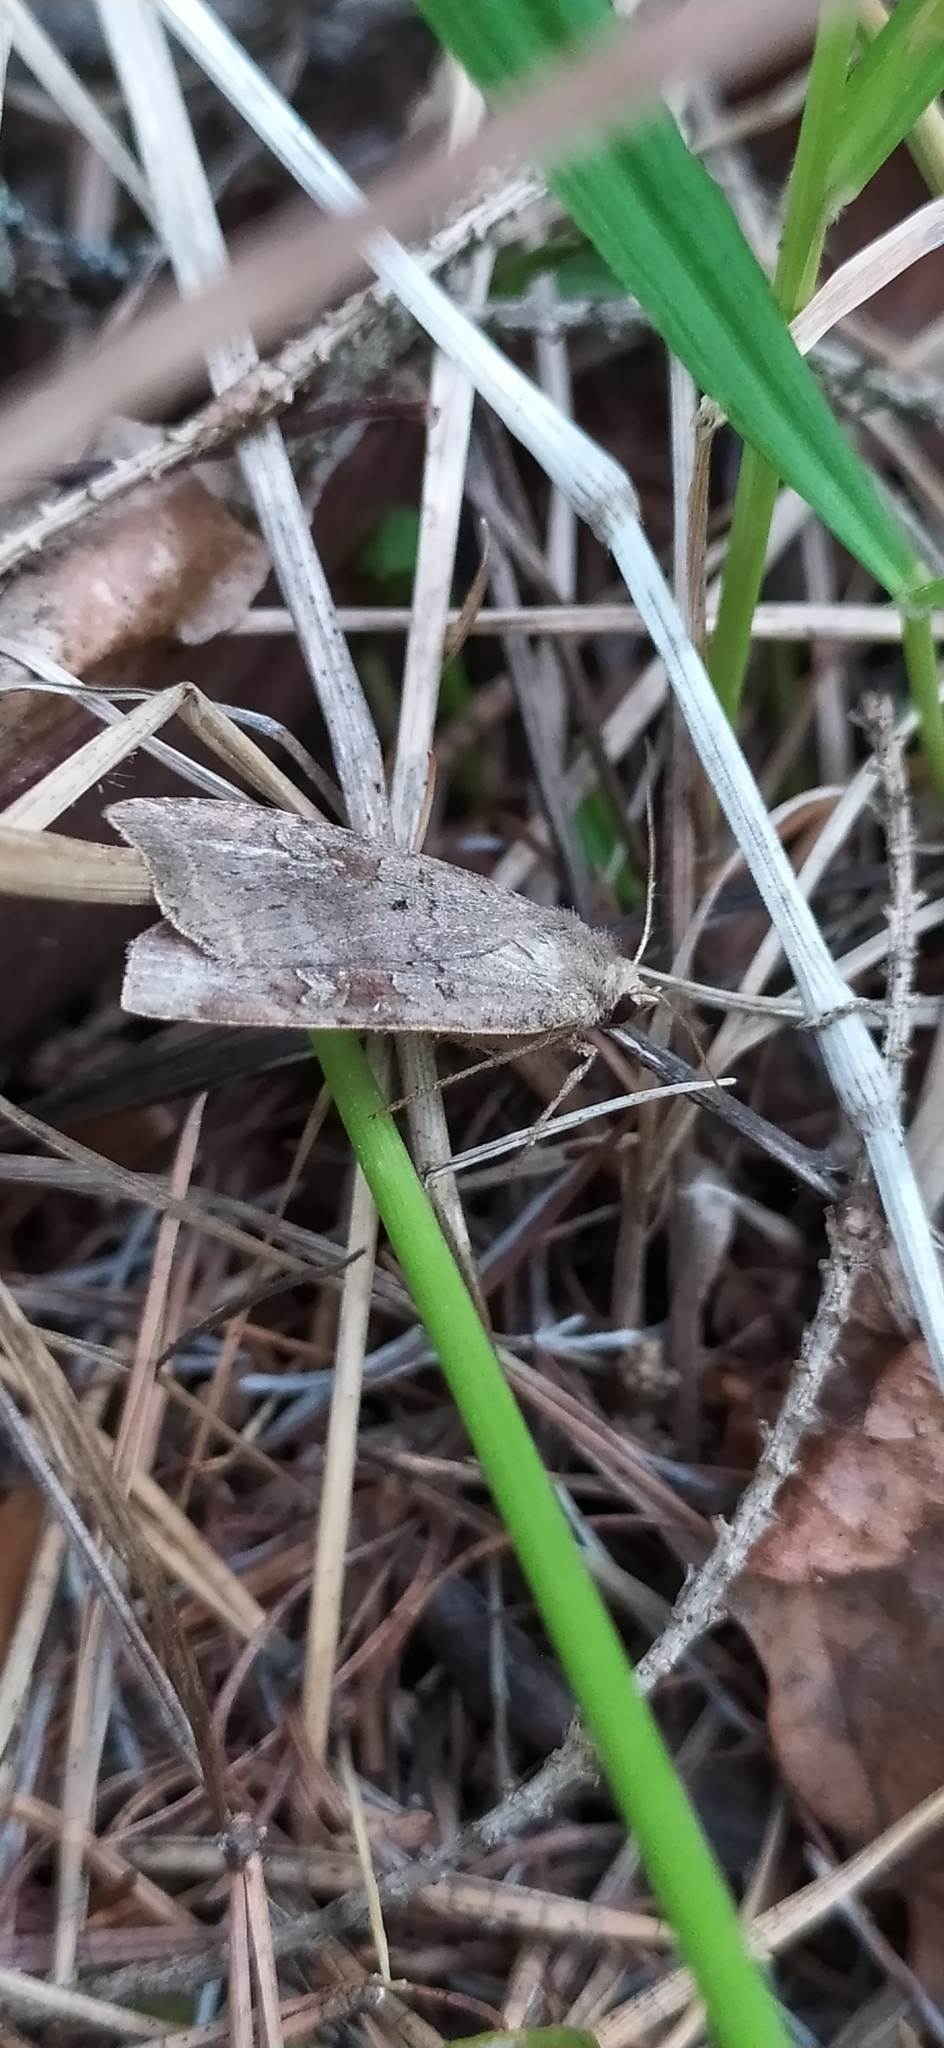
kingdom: Animalia
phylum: Arthropoda
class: Insecta
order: Lepidoptera
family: Noctuidae
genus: Parastichtis
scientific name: Parastichtis suspecta
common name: Suspected
